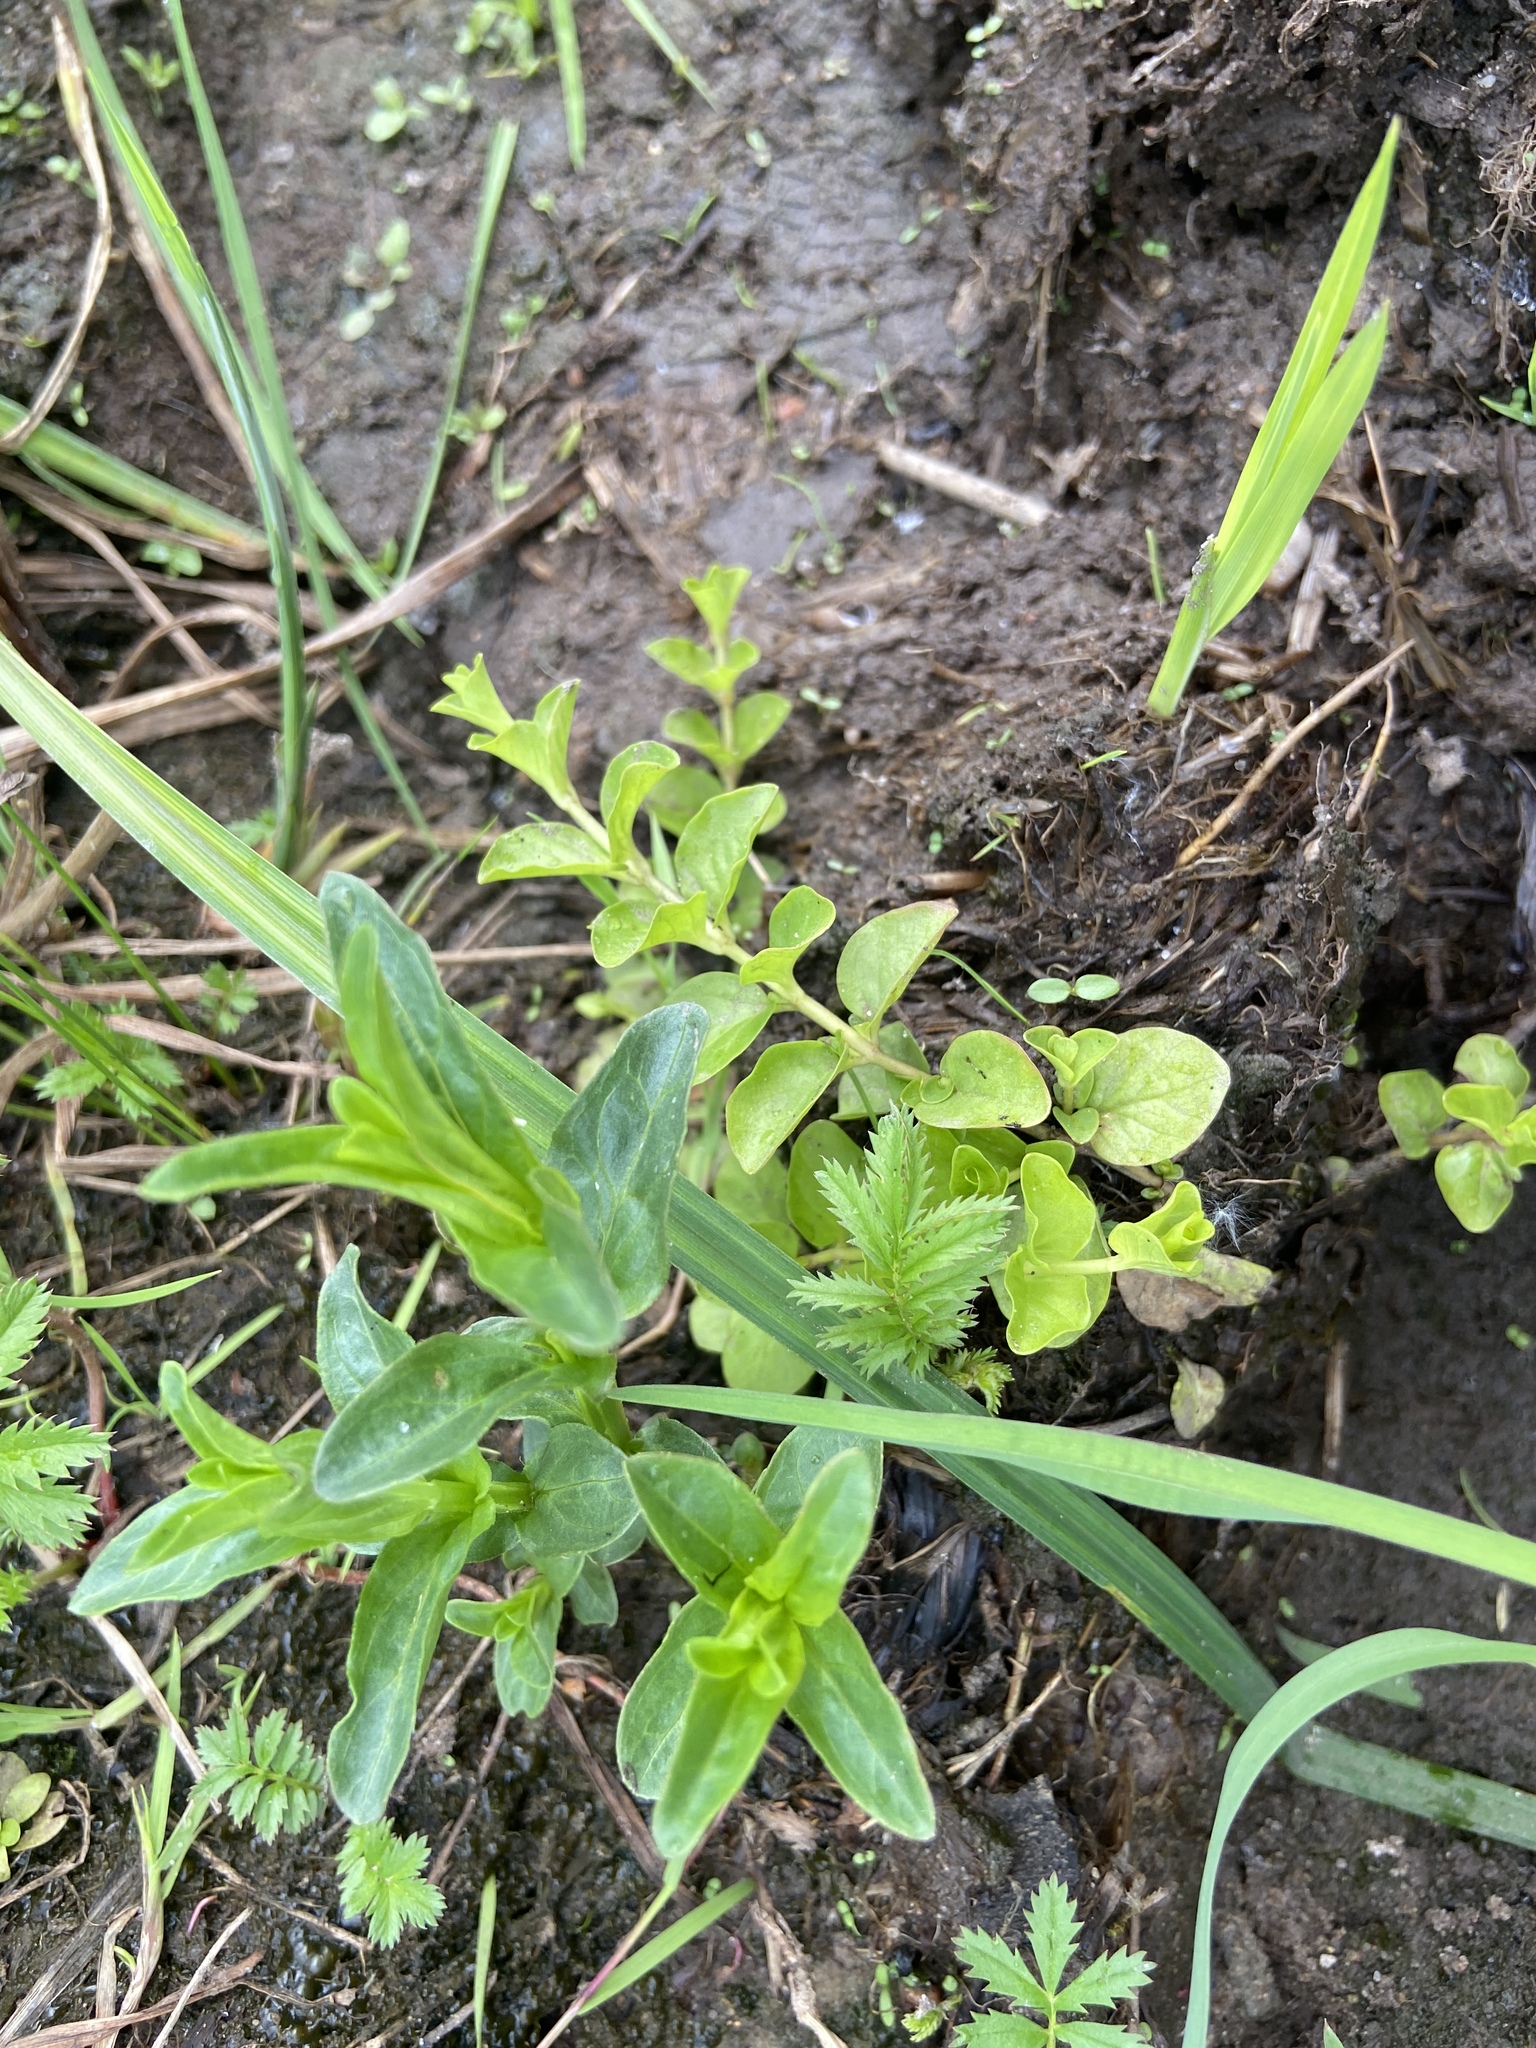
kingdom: Plantae
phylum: Tracheophyta
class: Magnoliopsida
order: Ericales
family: Primulaceae
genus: Lysimachia
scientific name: Lysimachia nummularia
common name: Moneywort
